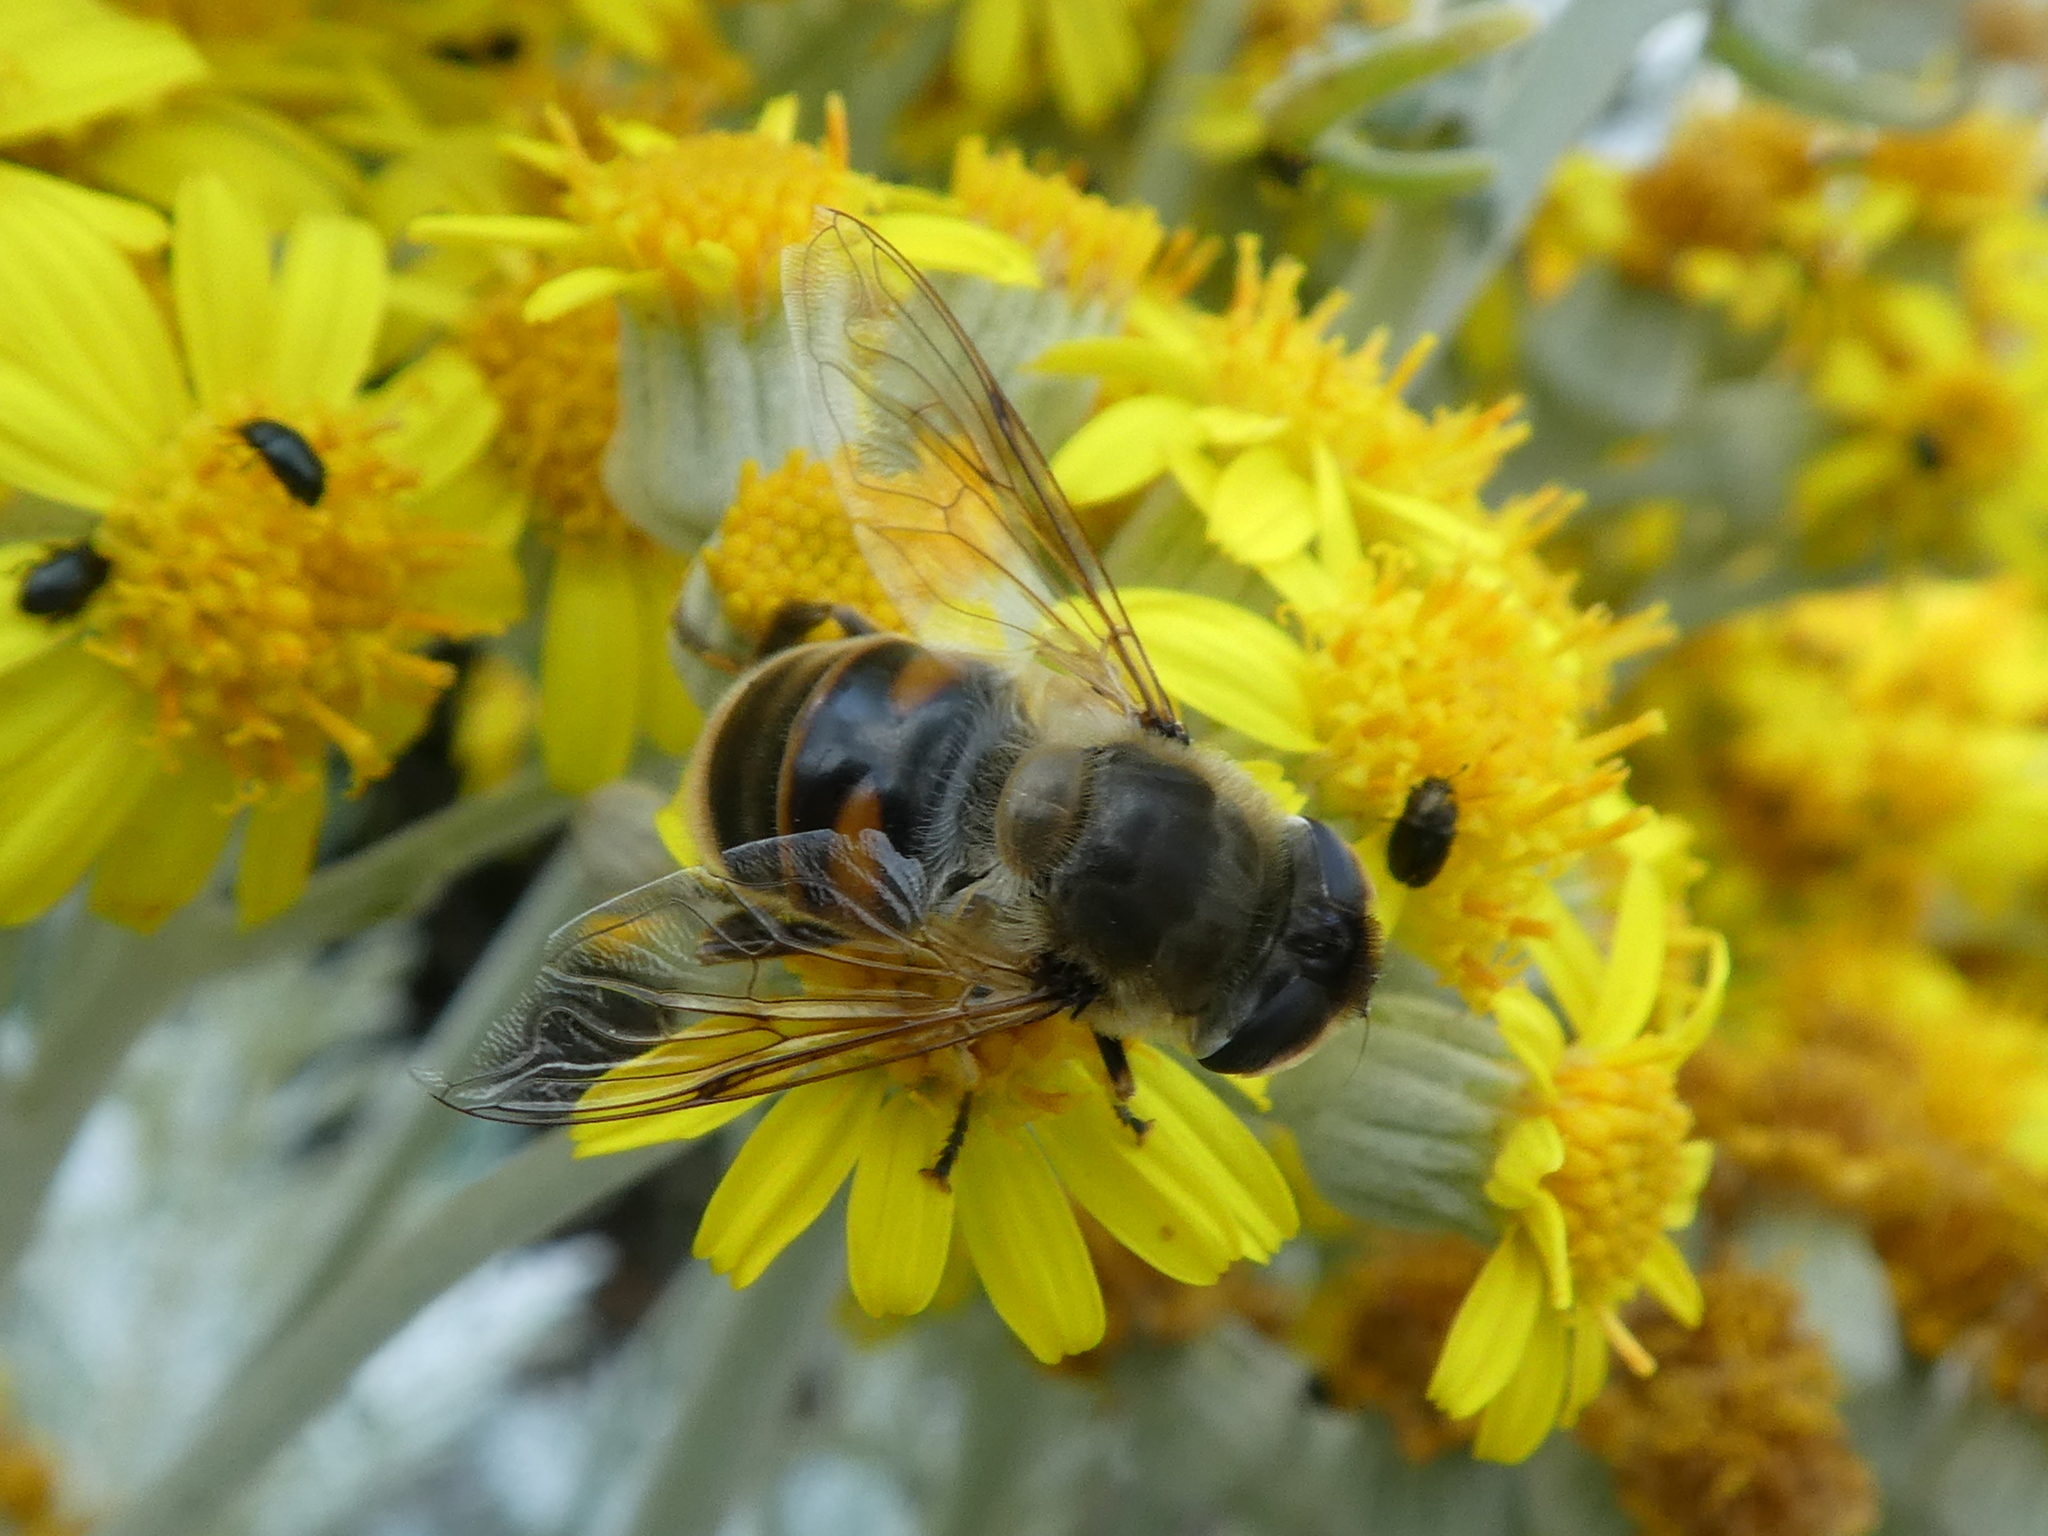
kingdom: Animalia
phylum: Arthropoda
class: Insecta
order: Diptera
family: Syrphidae
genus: Eristalis
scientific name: Eristalis tenax
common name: Drone fly
